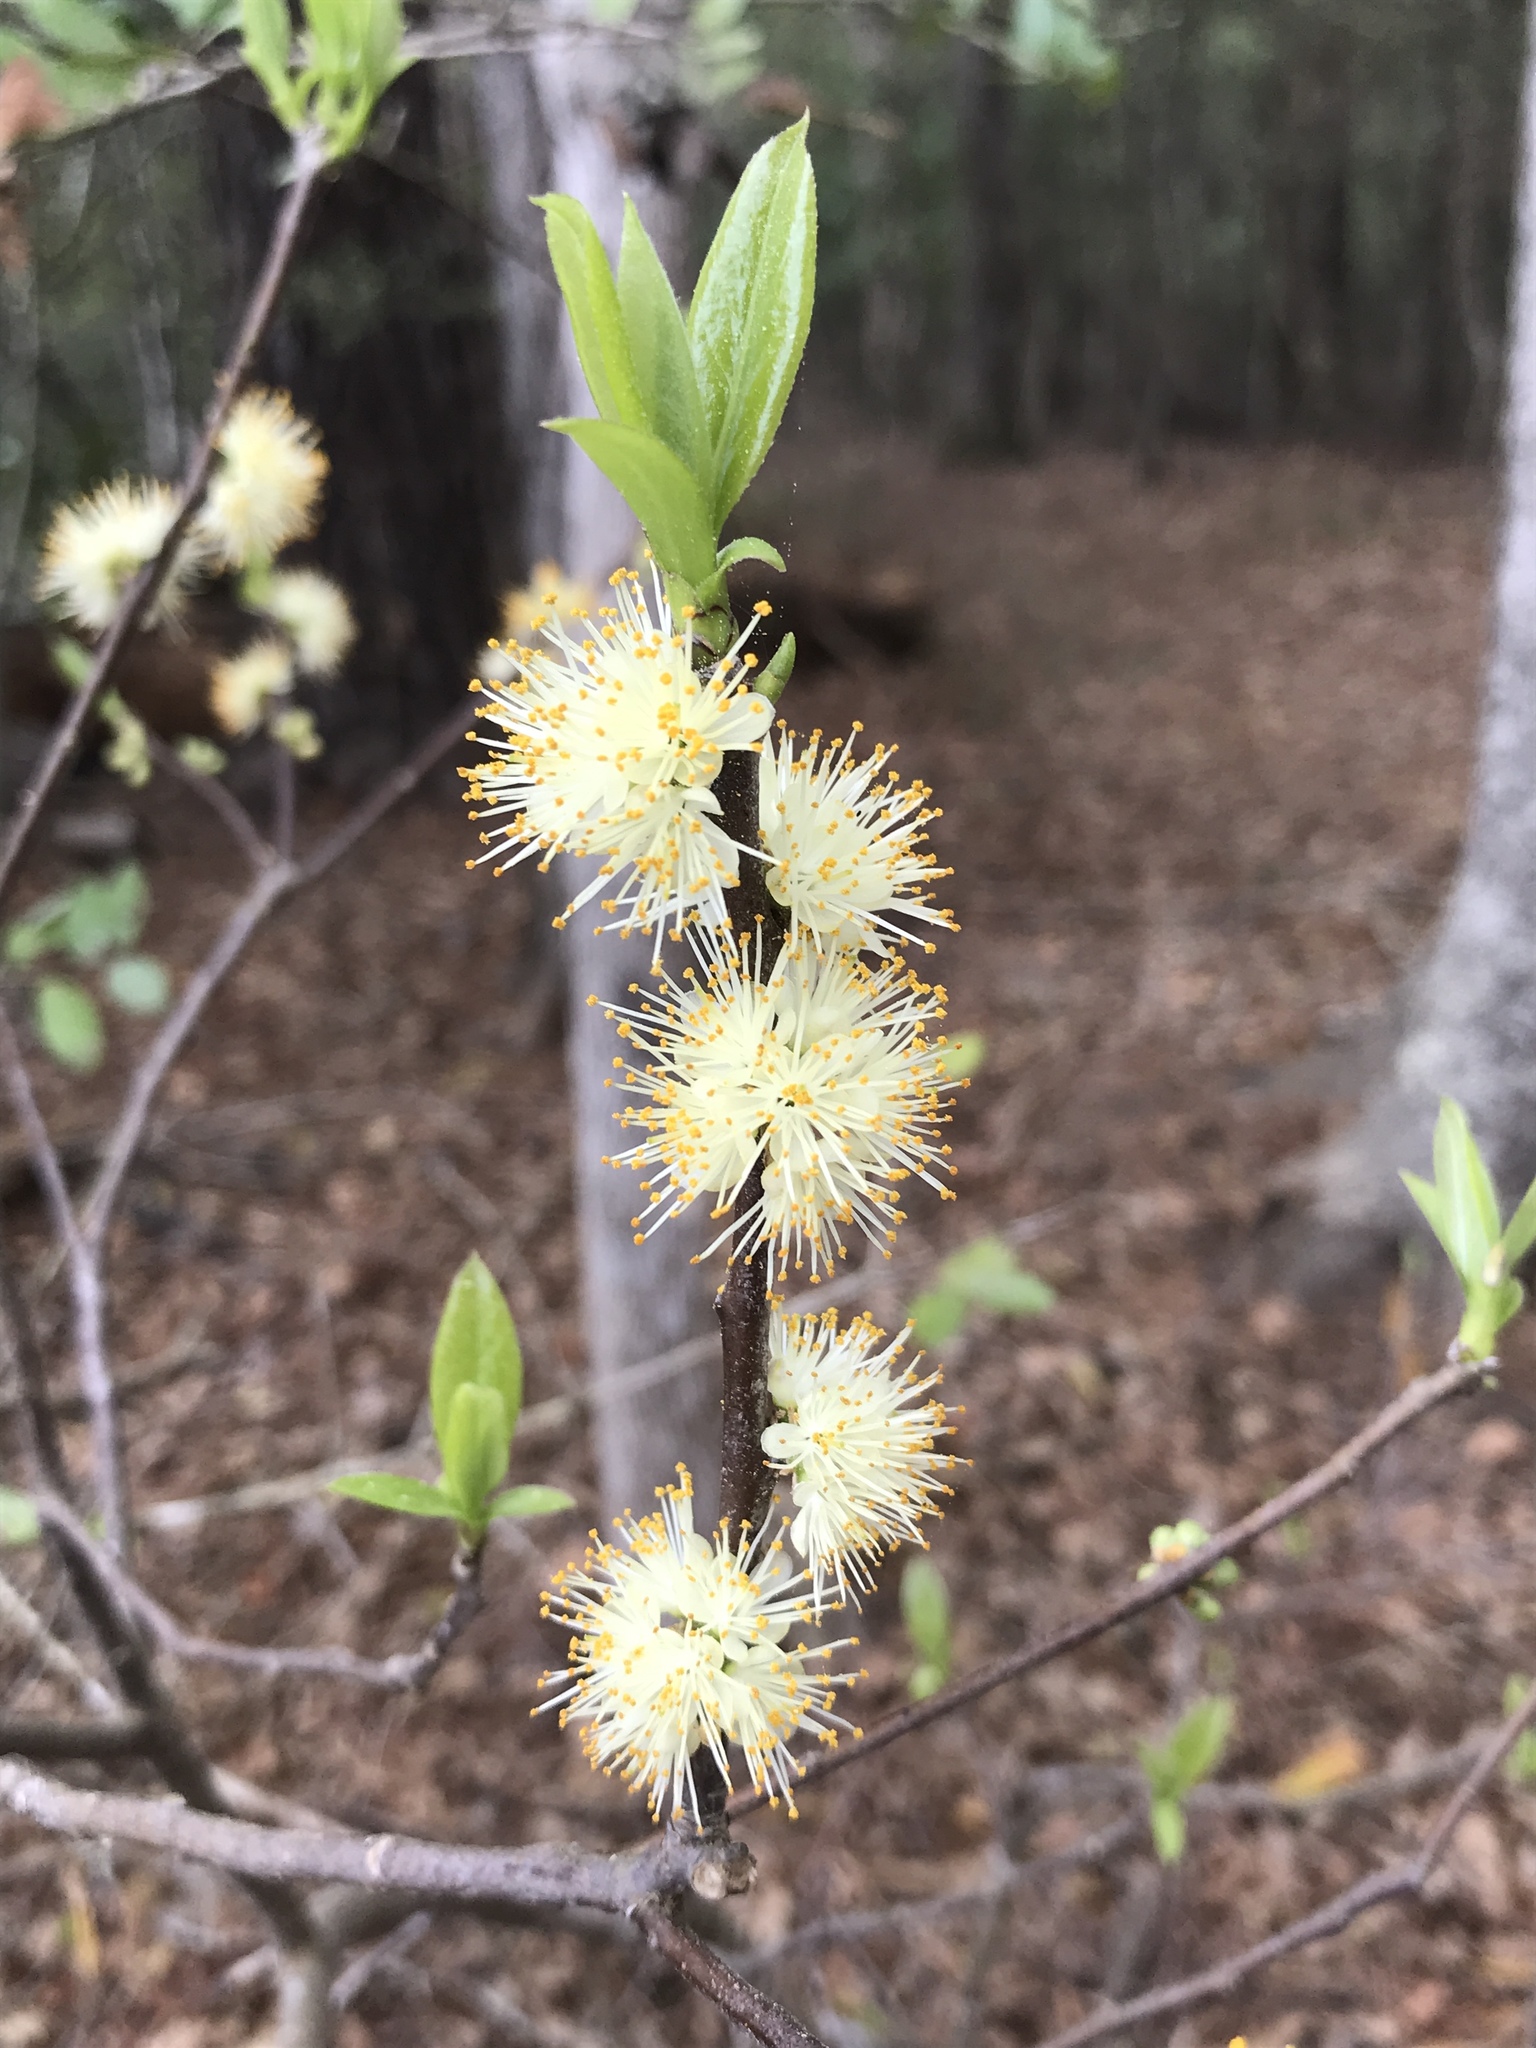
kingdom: Plantae
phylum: Tracheophyta
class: Magnoliopsida
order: Ericales
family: Symplocaceae
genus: Symplocos
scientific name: Symplocos tinctoria
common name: Horse-sugar
